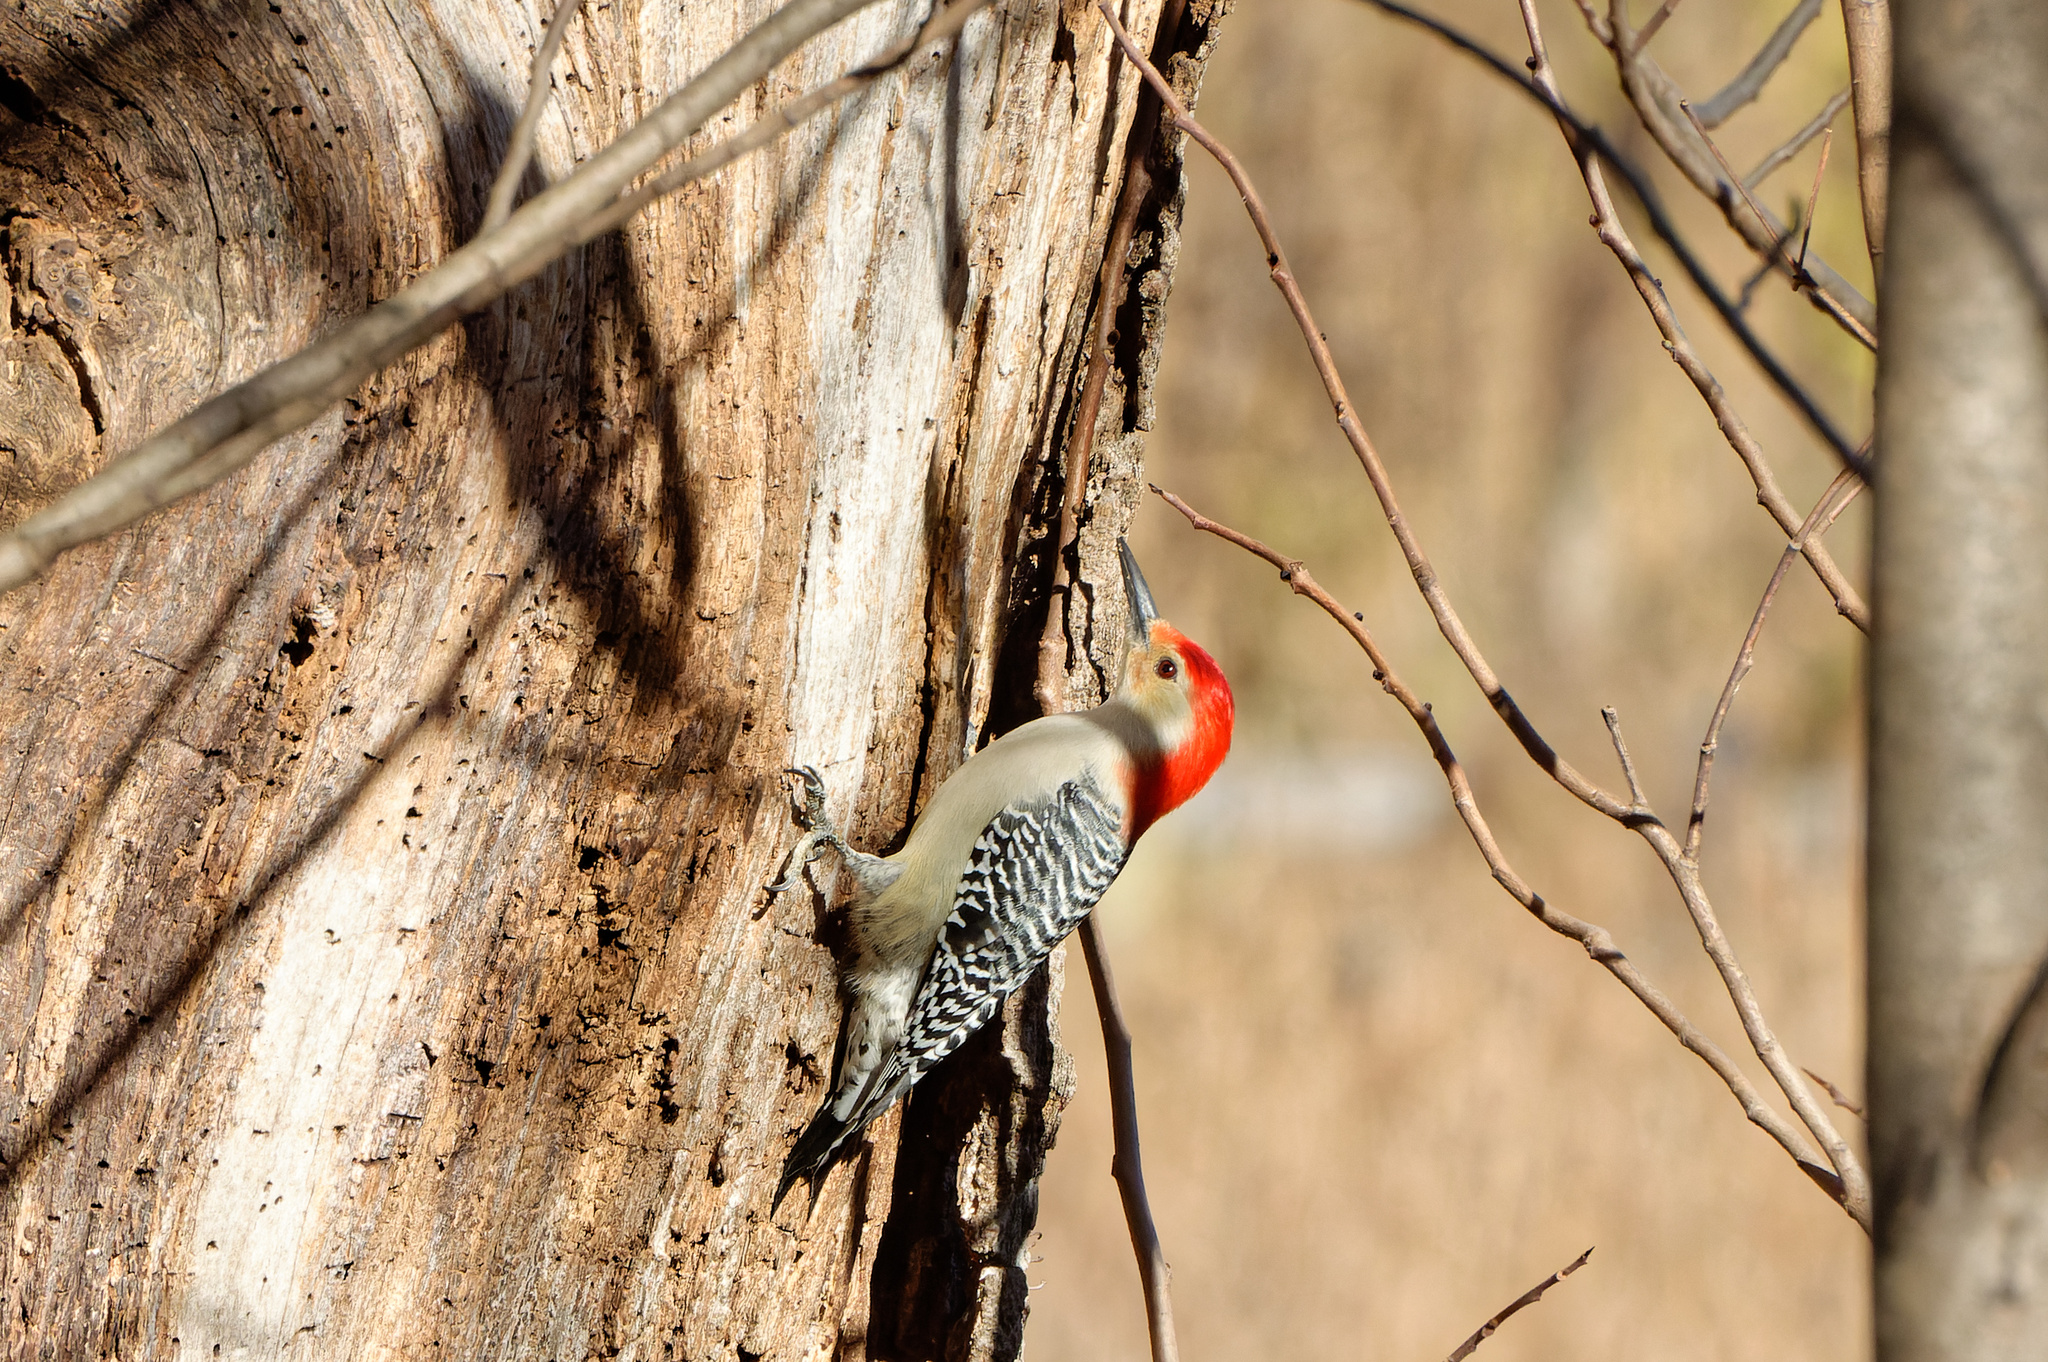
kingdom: Animalia
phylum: Chordata
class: Aves
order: Piciformes
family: Picidae
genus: Melanerpes
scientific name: Melanerpes carolinus
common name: Red-bellied woodpecker
